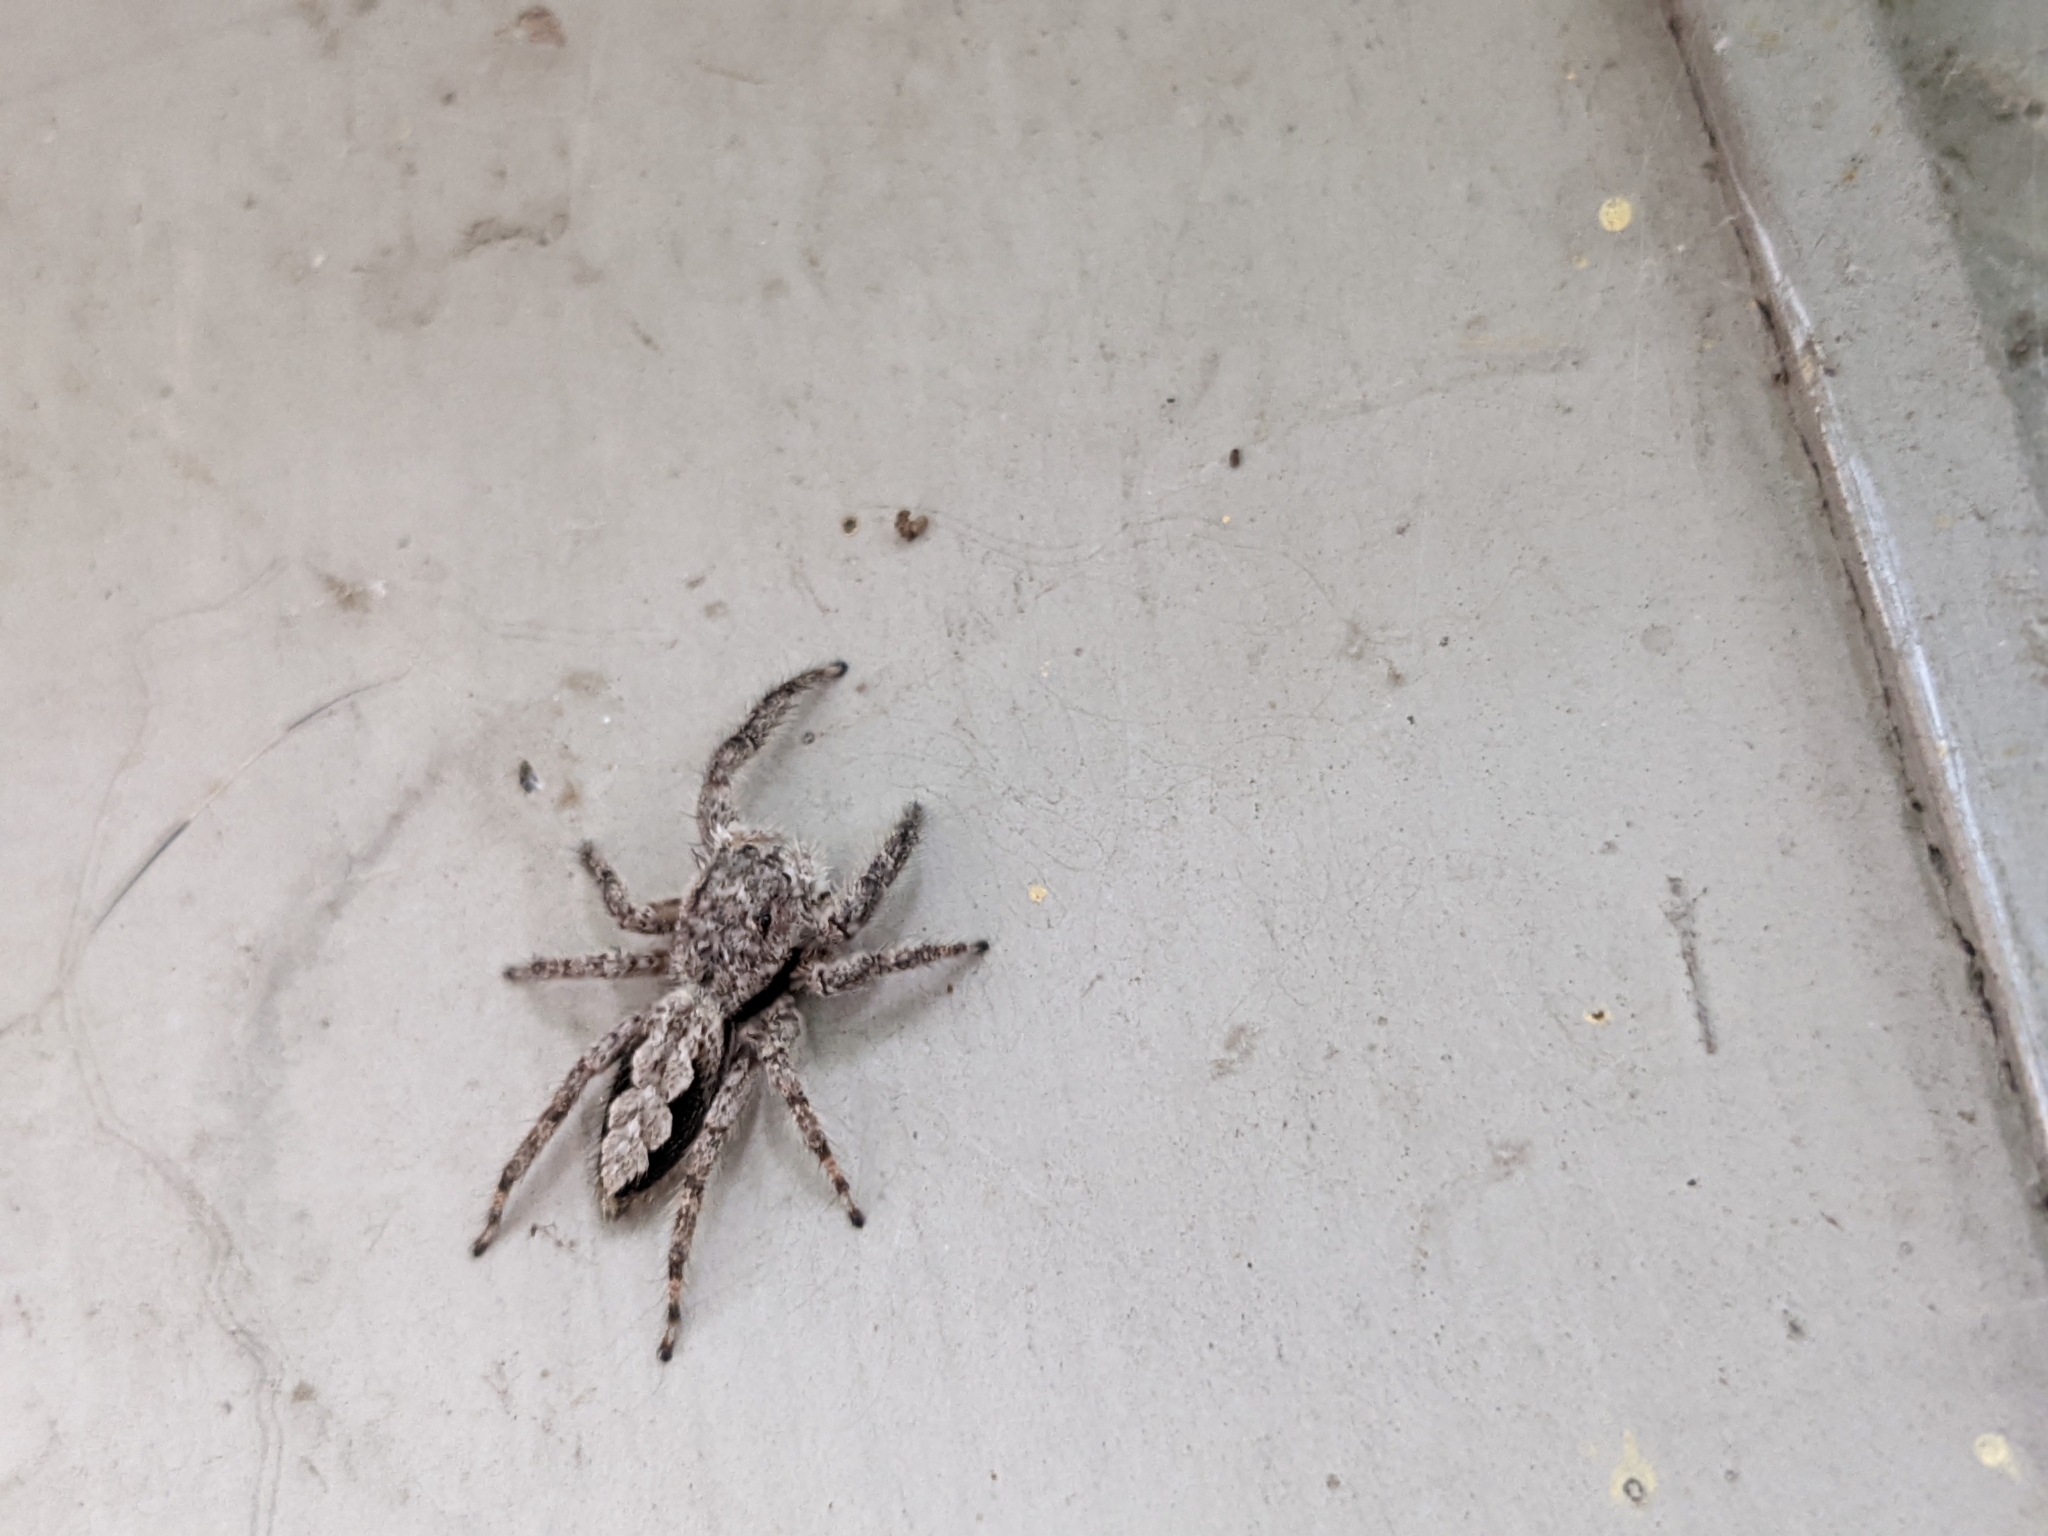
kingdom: Animalia
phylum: Arthropoda
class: Arachnida
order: Araneae
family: Salticidae
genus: Platycryptus
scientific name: Platycryptus undatus
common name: Tan jumping spider
